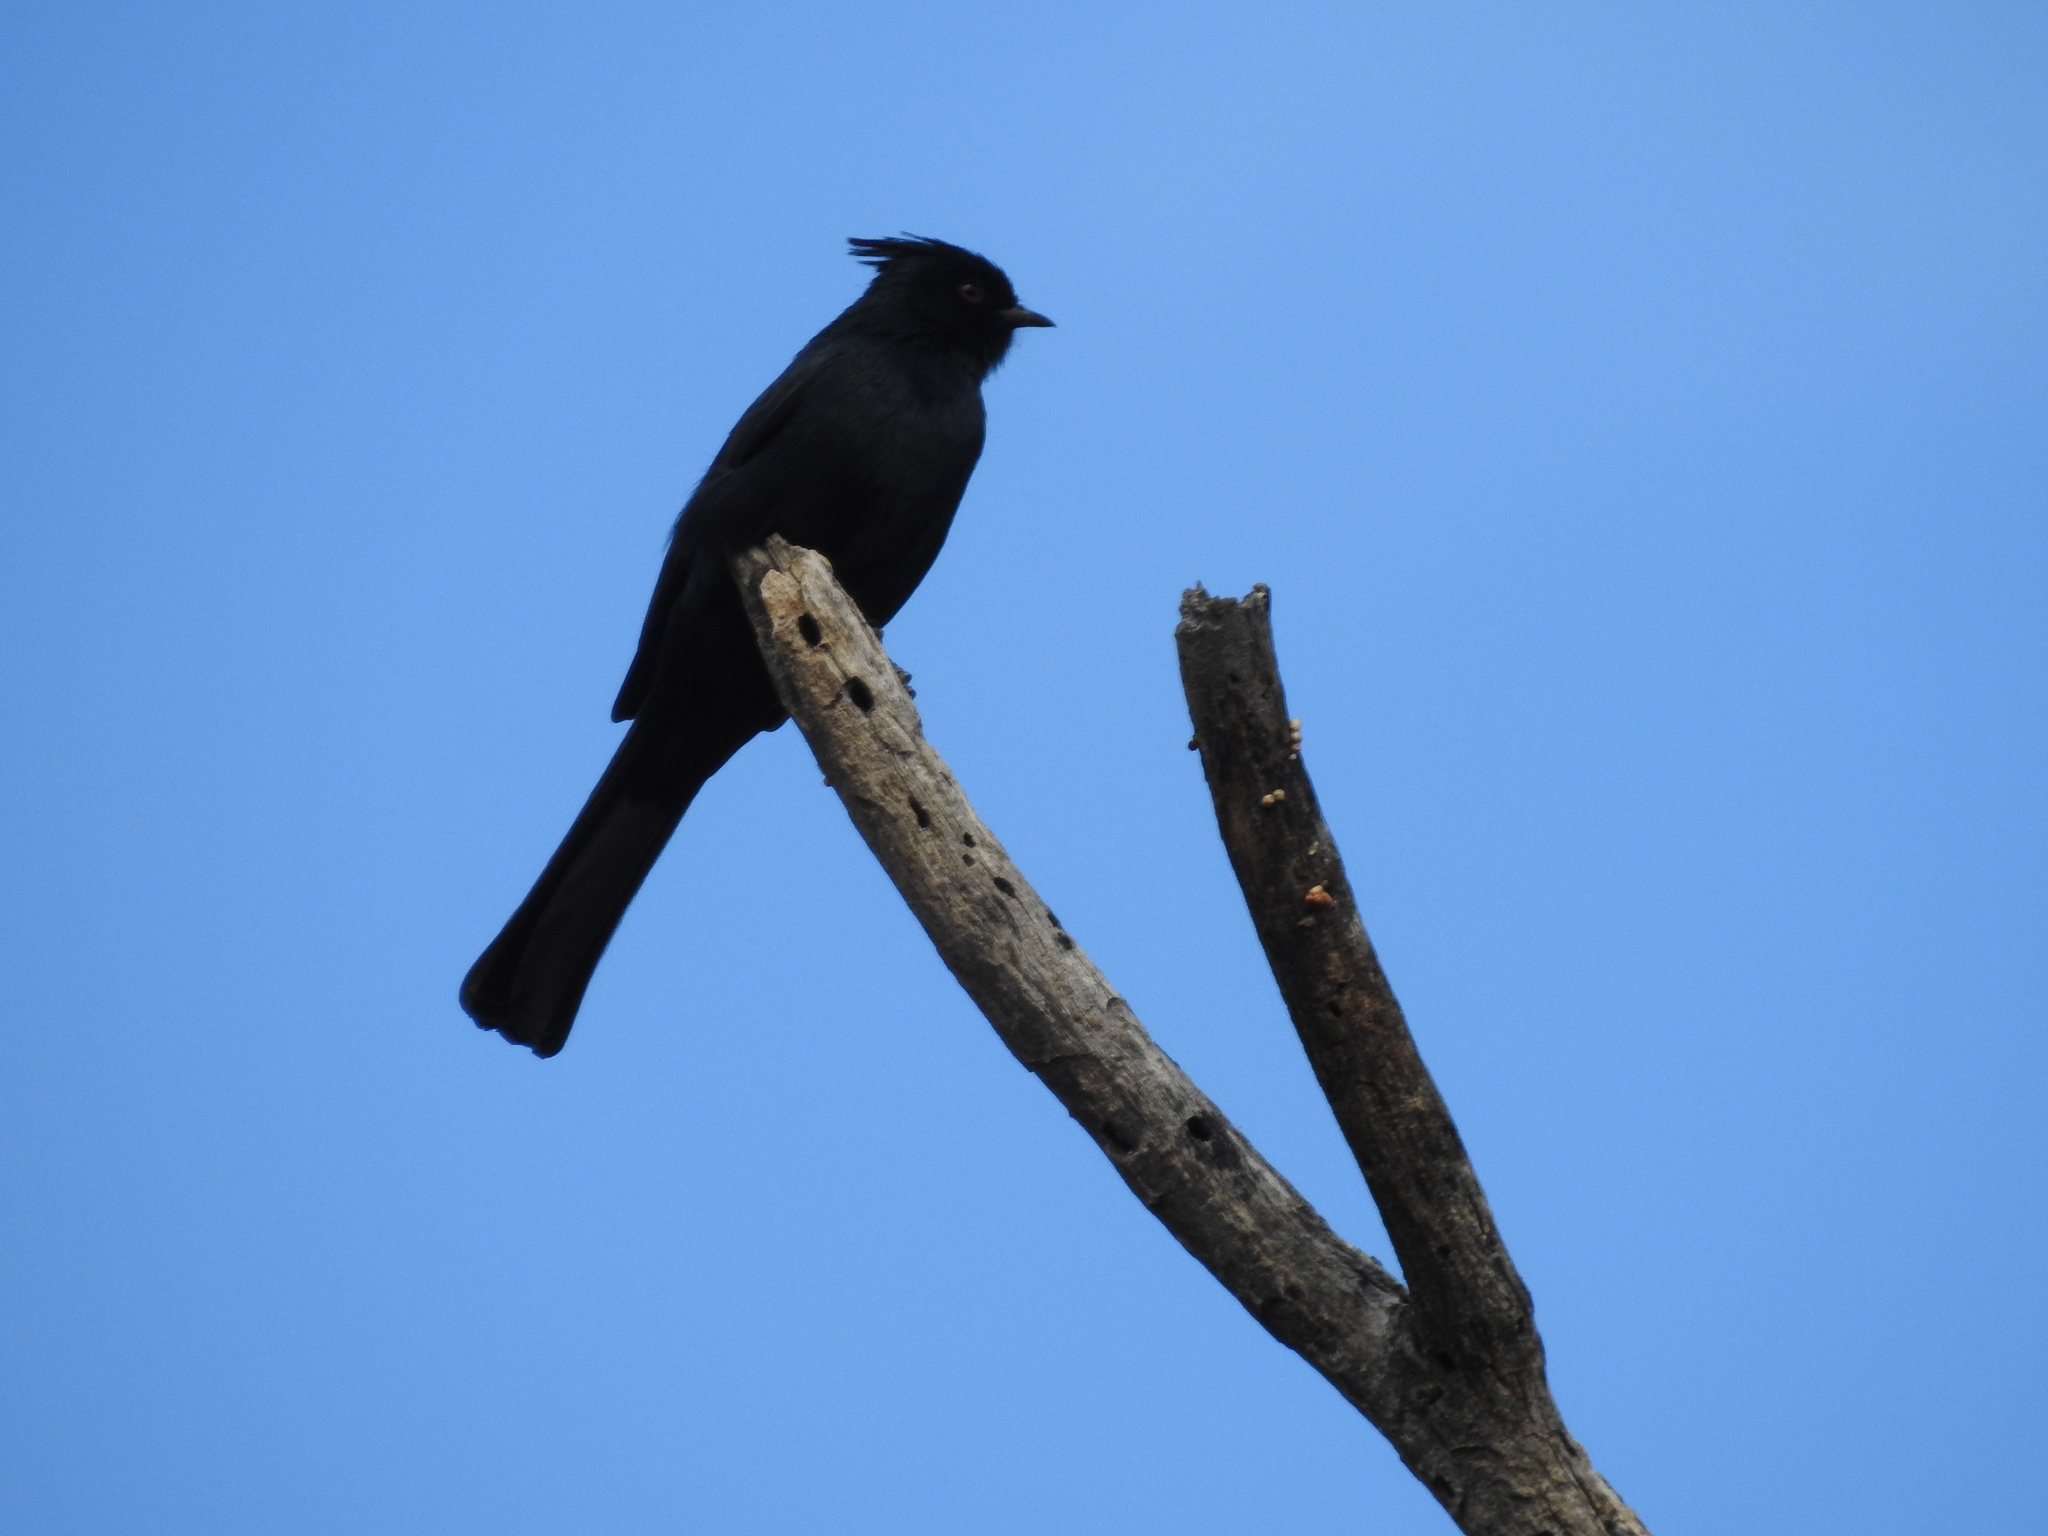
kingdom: Animalia
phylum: Chordata
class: Aves
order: Passeriformes
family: Ptilogonatidae
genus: Phainopepla
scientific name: Phainopepla nitens
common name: Phainopepla
